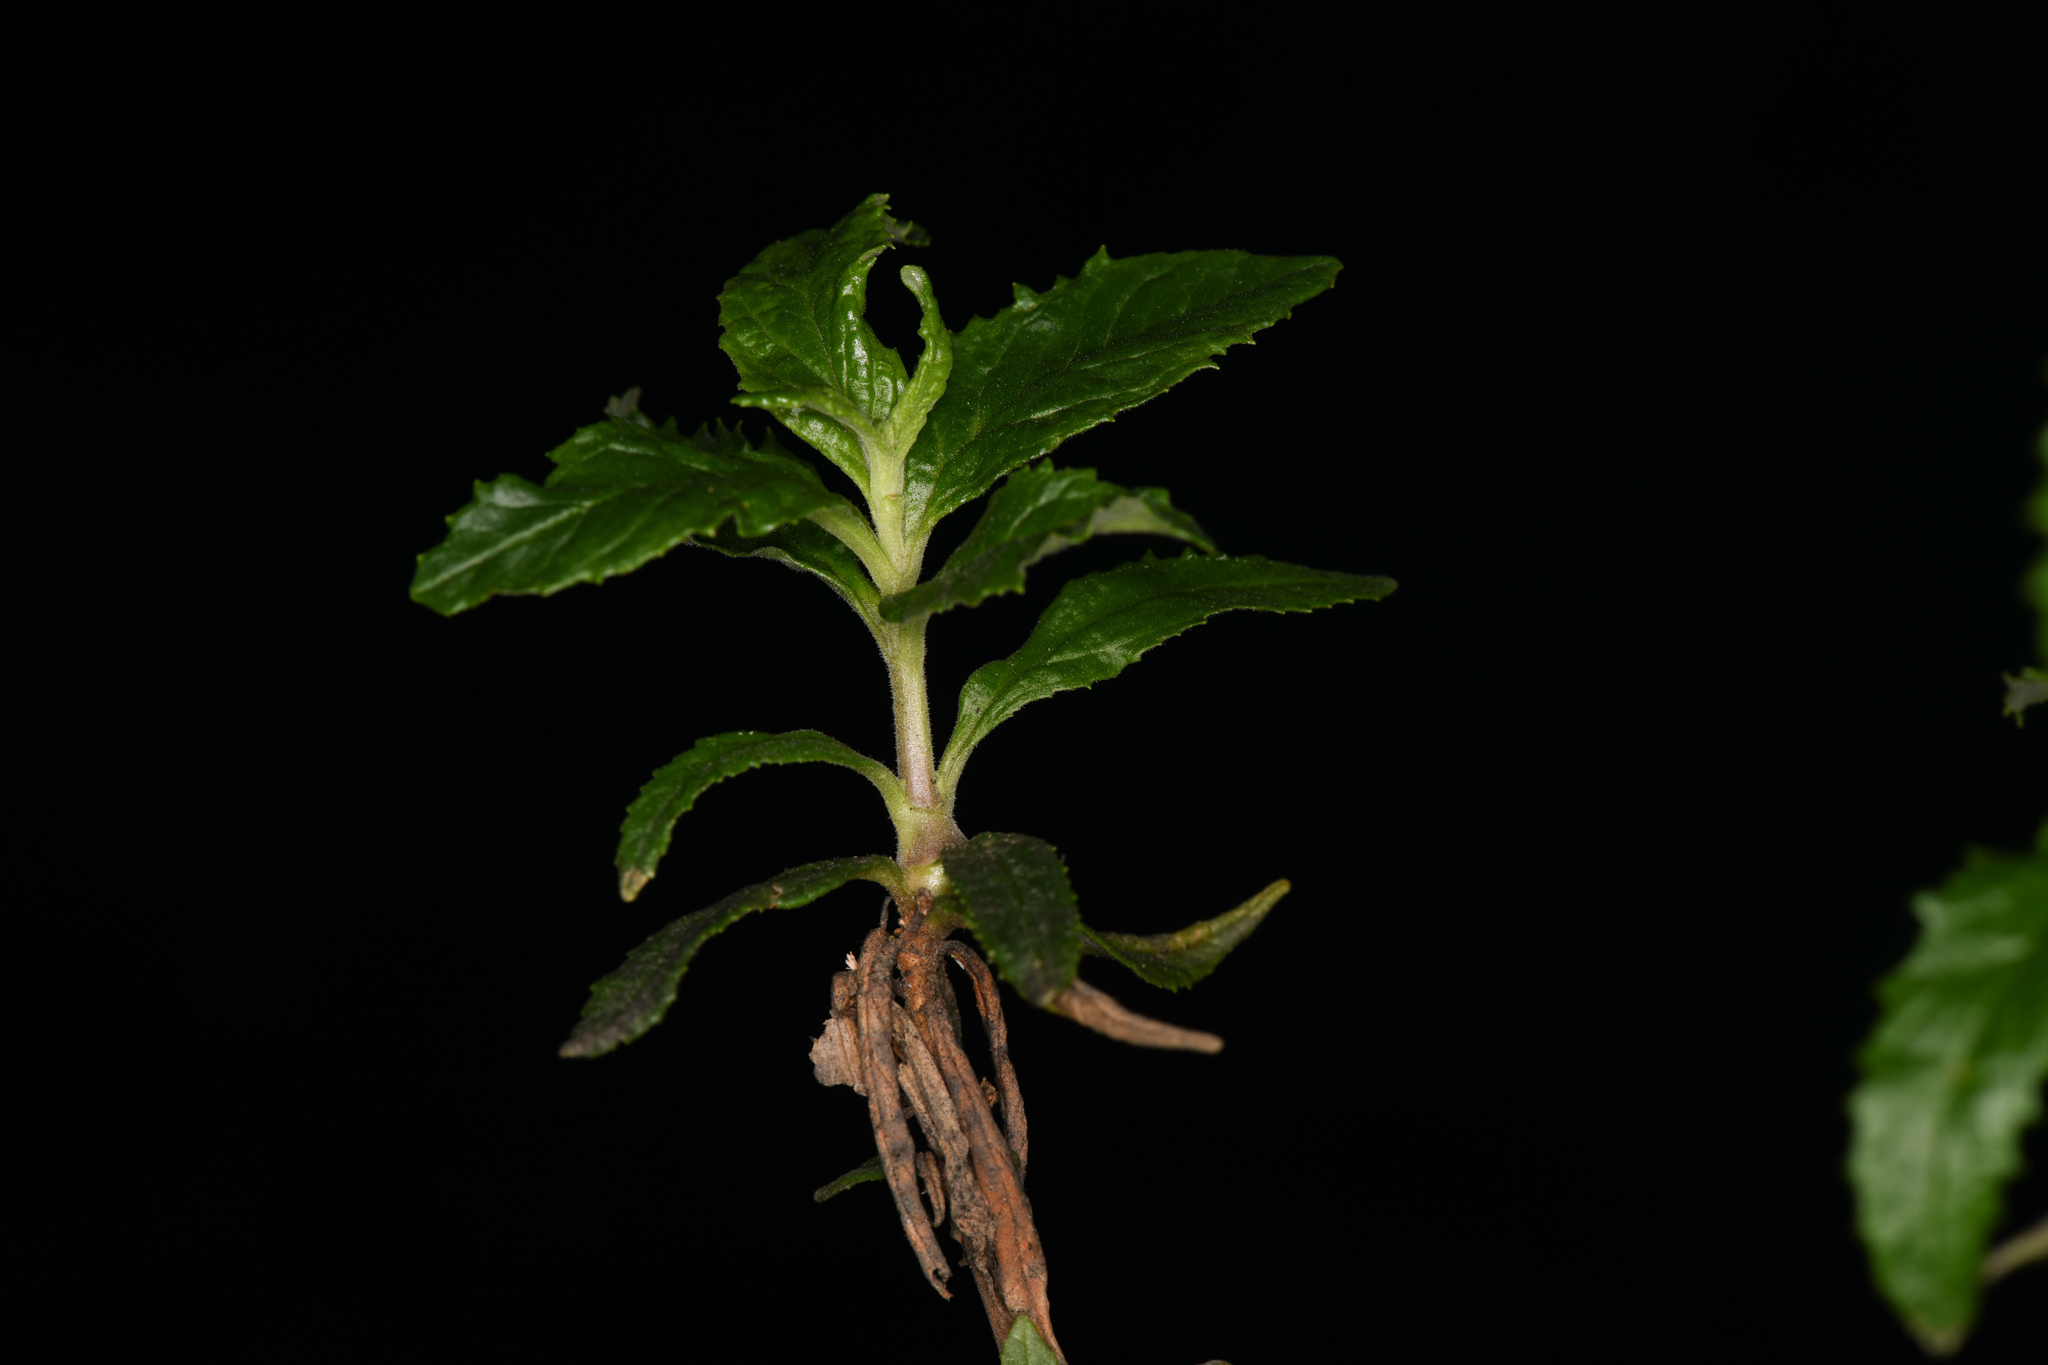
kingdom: Animalia
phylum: Arthropoda
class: Insecta
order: Diptera
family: Cecidomyiidae
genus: Neolasioptera
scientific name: Neolasioptera mimuli
